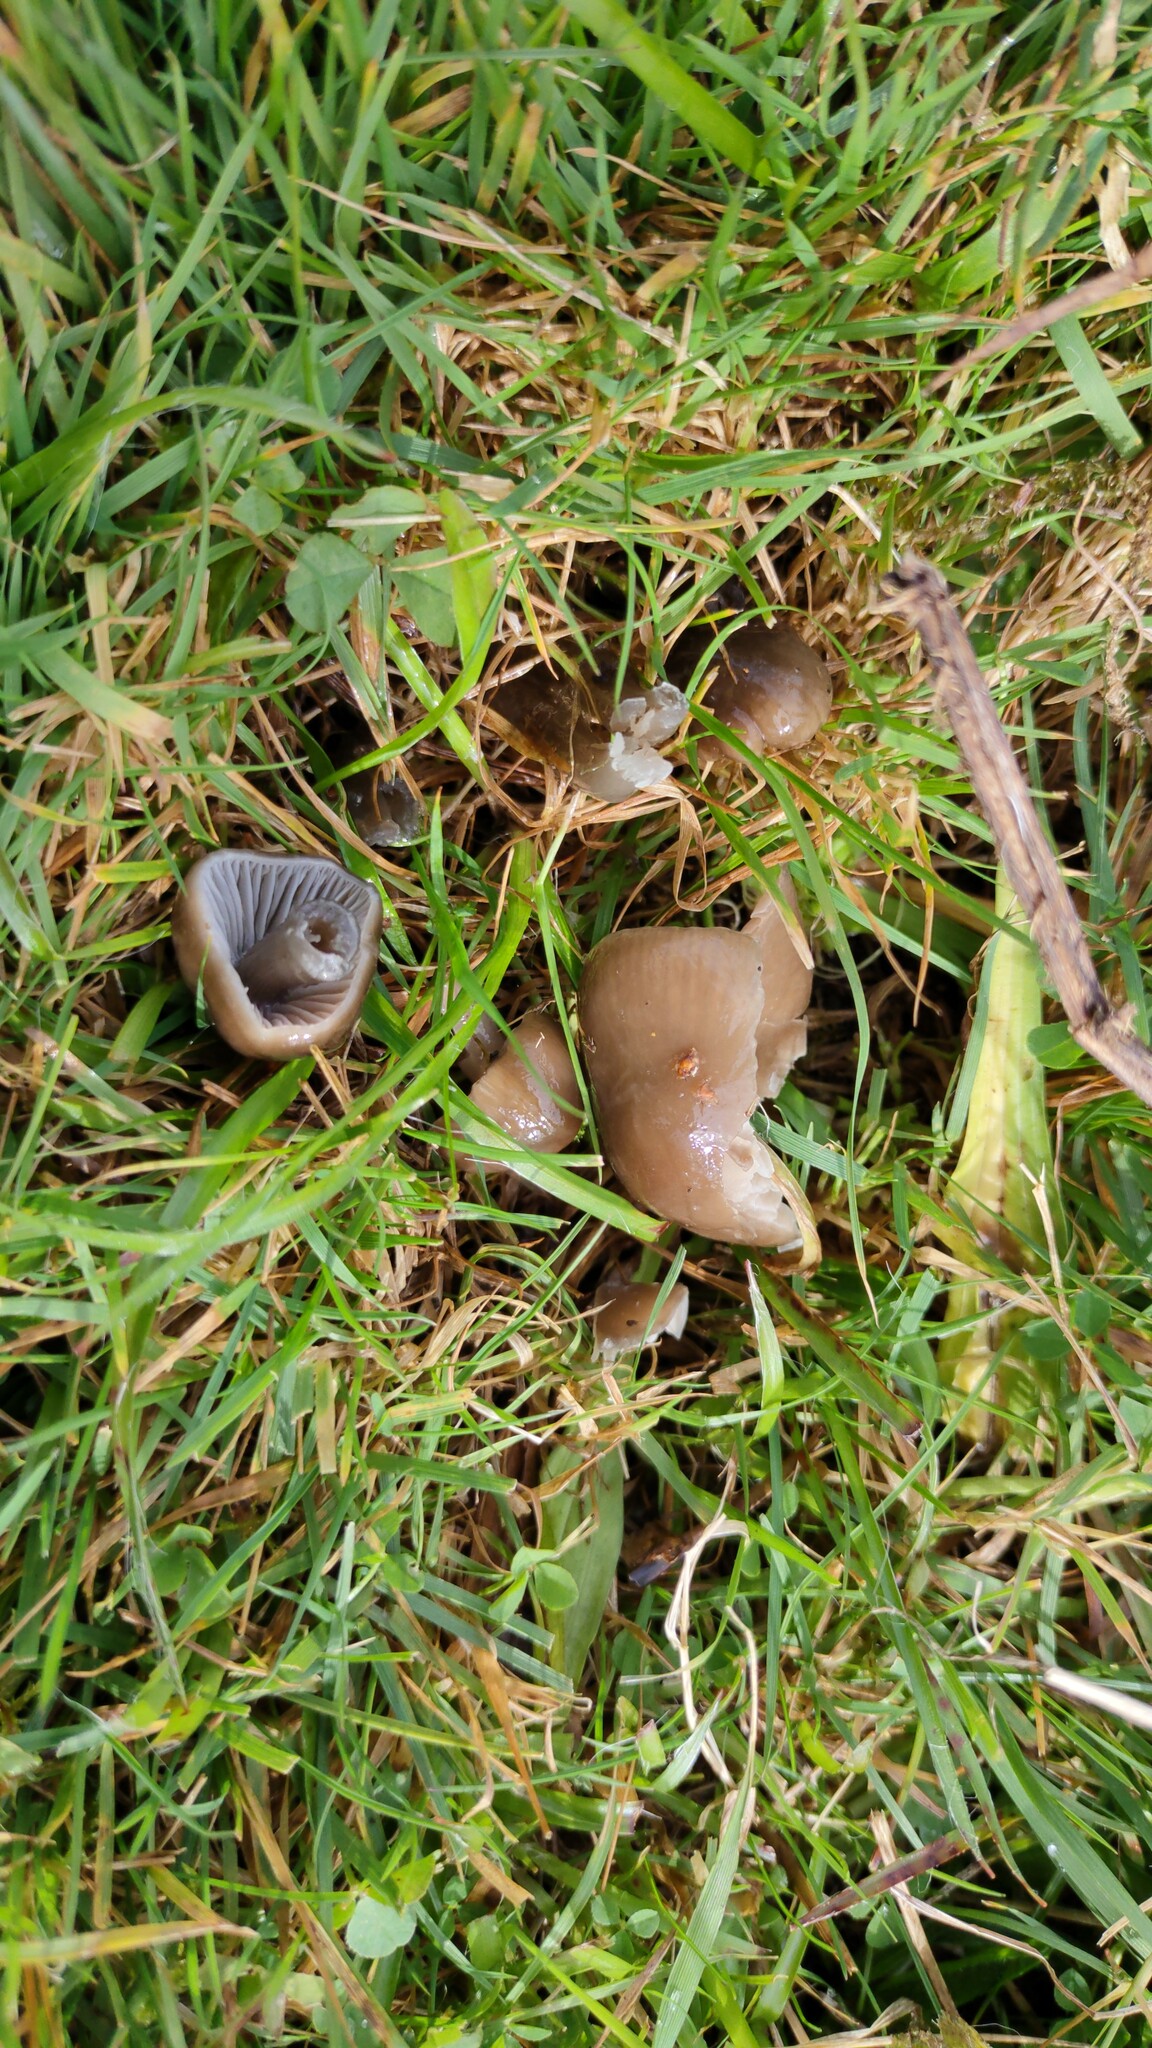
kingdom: Fungi
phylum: Basidiomycota
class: Agaricomycetes
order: Agaricales
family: Hygrophoraceae
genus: Gliophorus
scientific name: Gliophorus irrigatus
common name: Slimy waxcap
